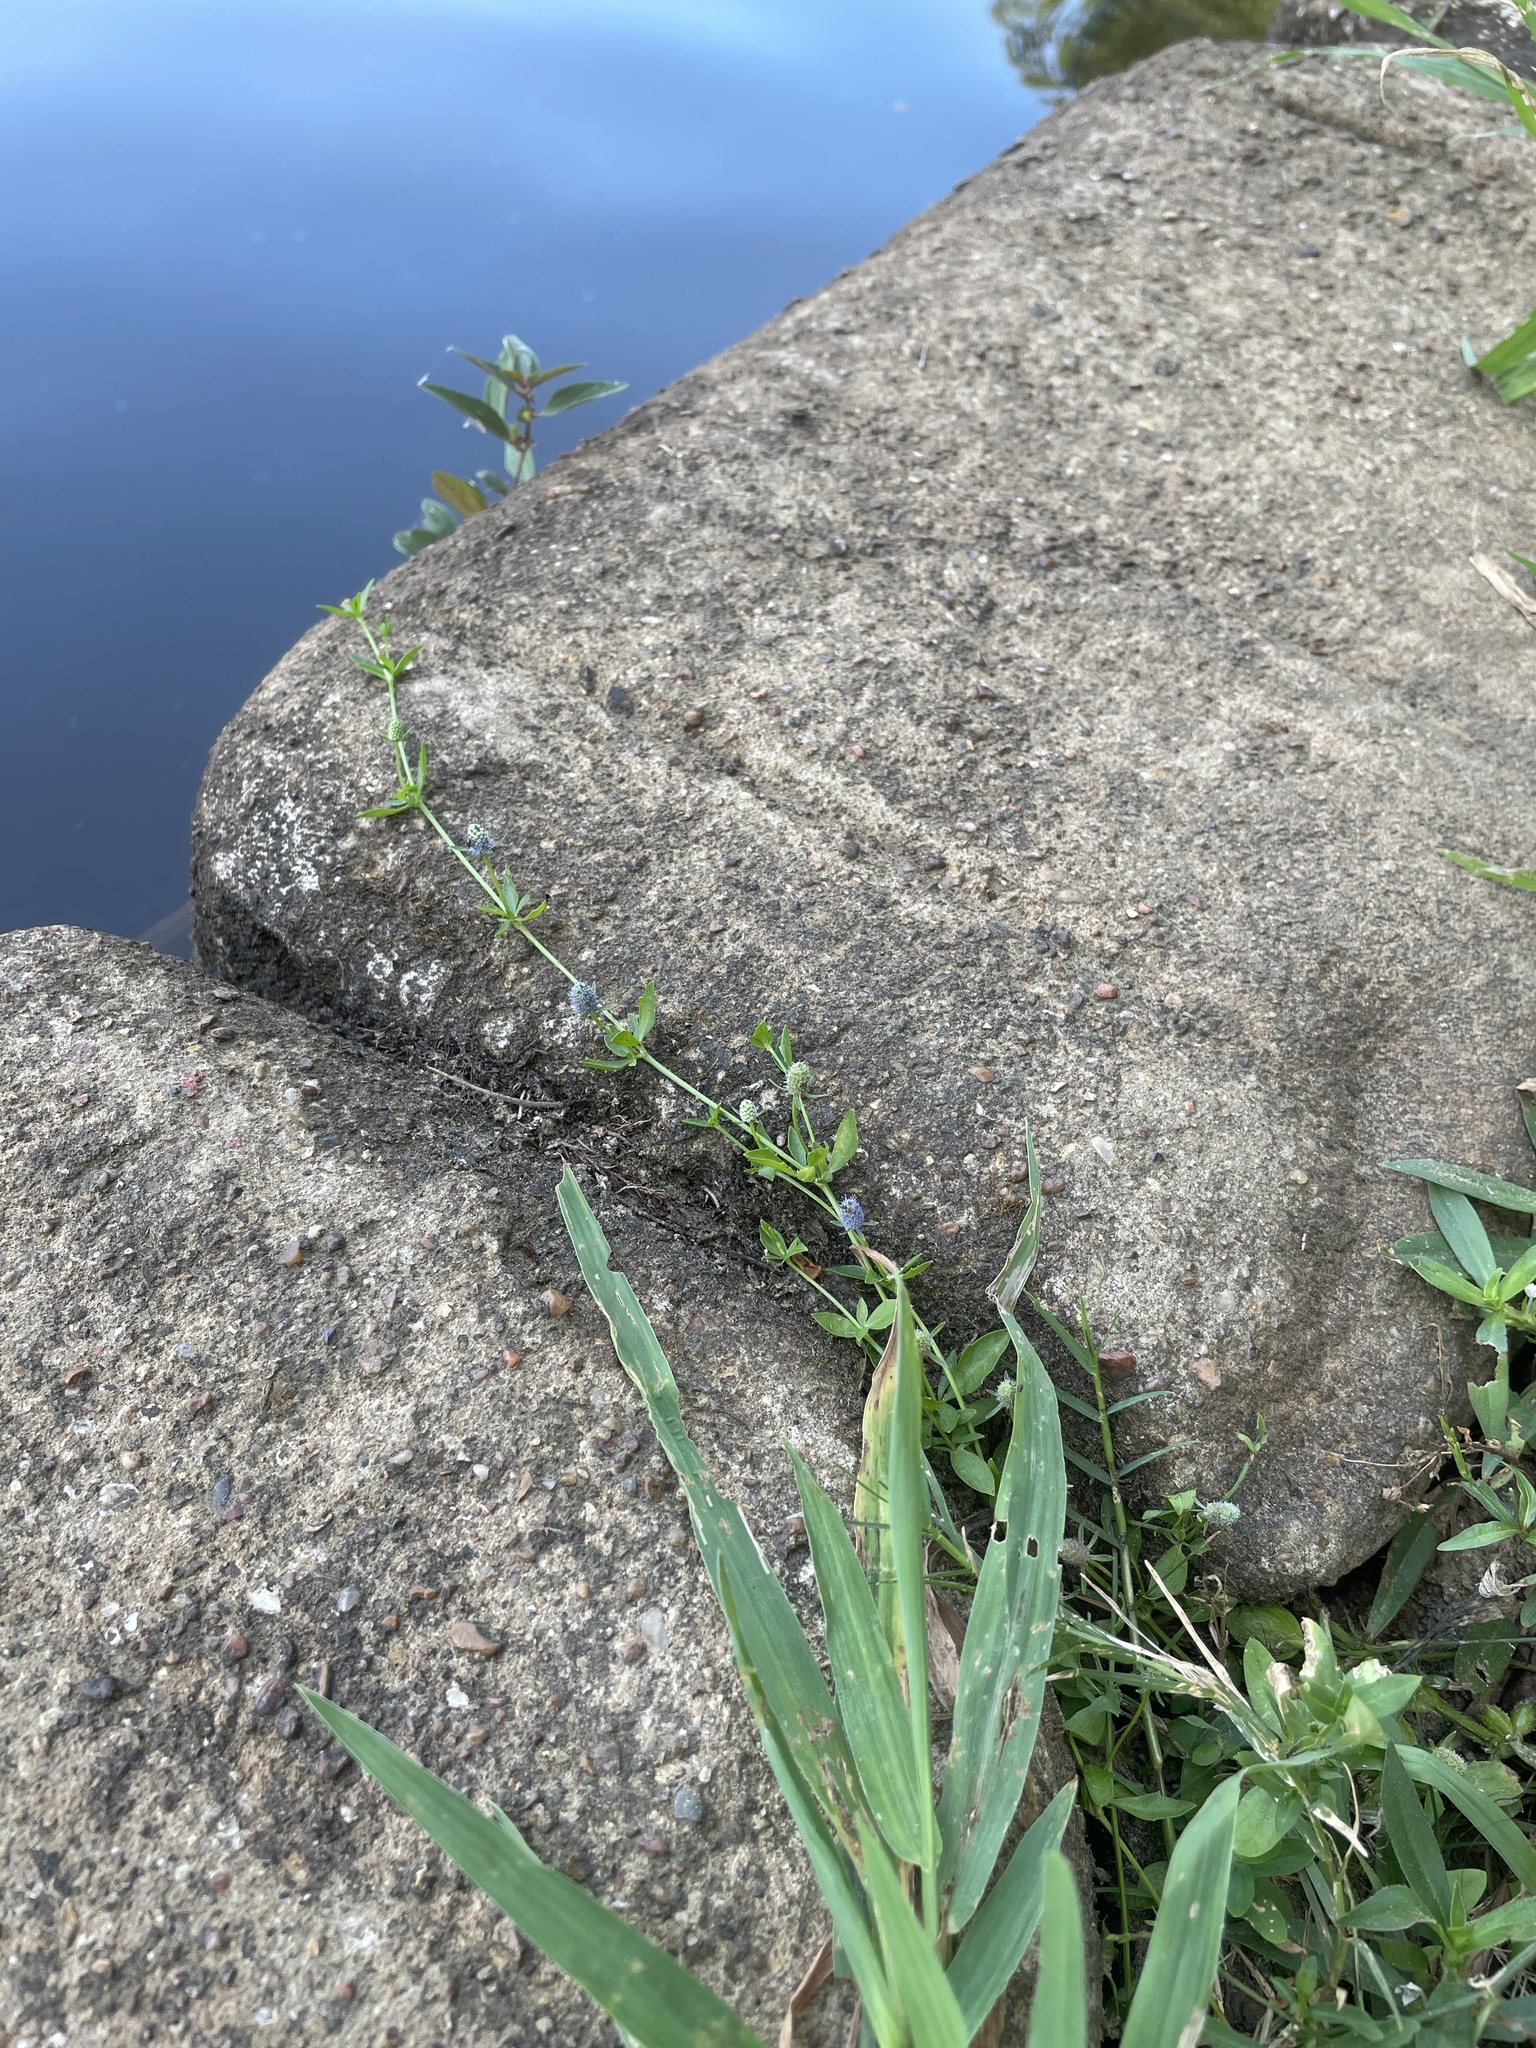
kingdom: Plantae
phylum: Tracheophyta
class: Magnoliopsida
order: Apiales
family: Apiaceae
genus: Eryngium
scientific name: Eryngium prostratum
